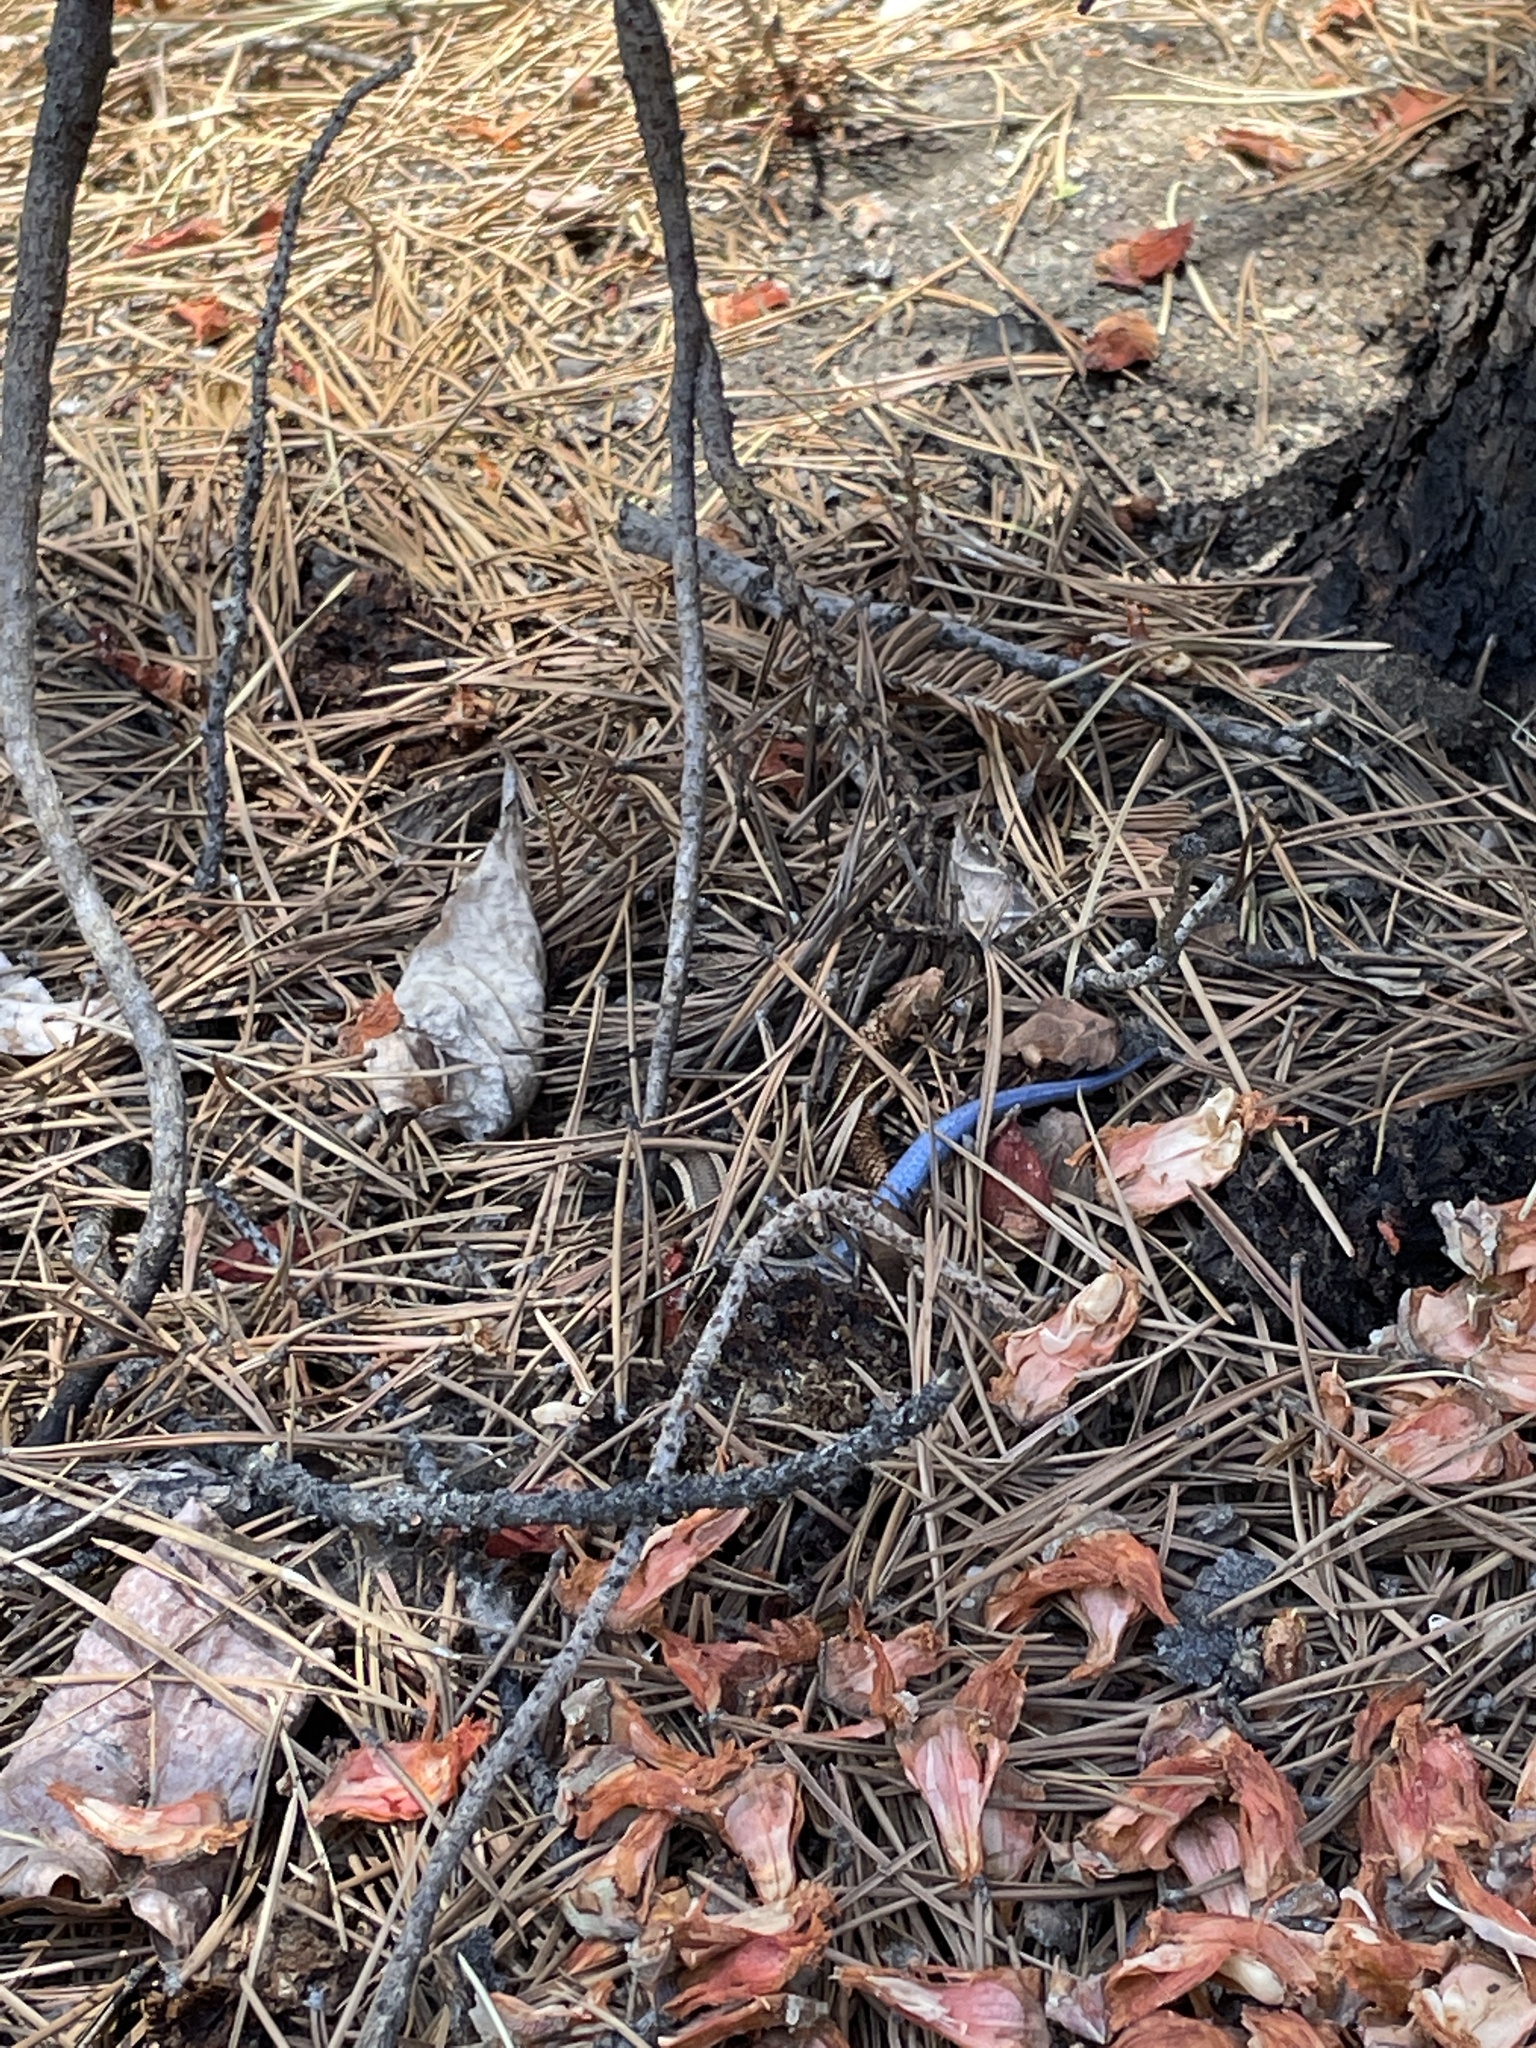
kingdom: Animalia
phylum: Chordata
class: Squamata
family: Scincidae
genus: Plestiodon
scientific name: Plestiodon skiltonianus
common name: Coronado island skink [interparietalis]
